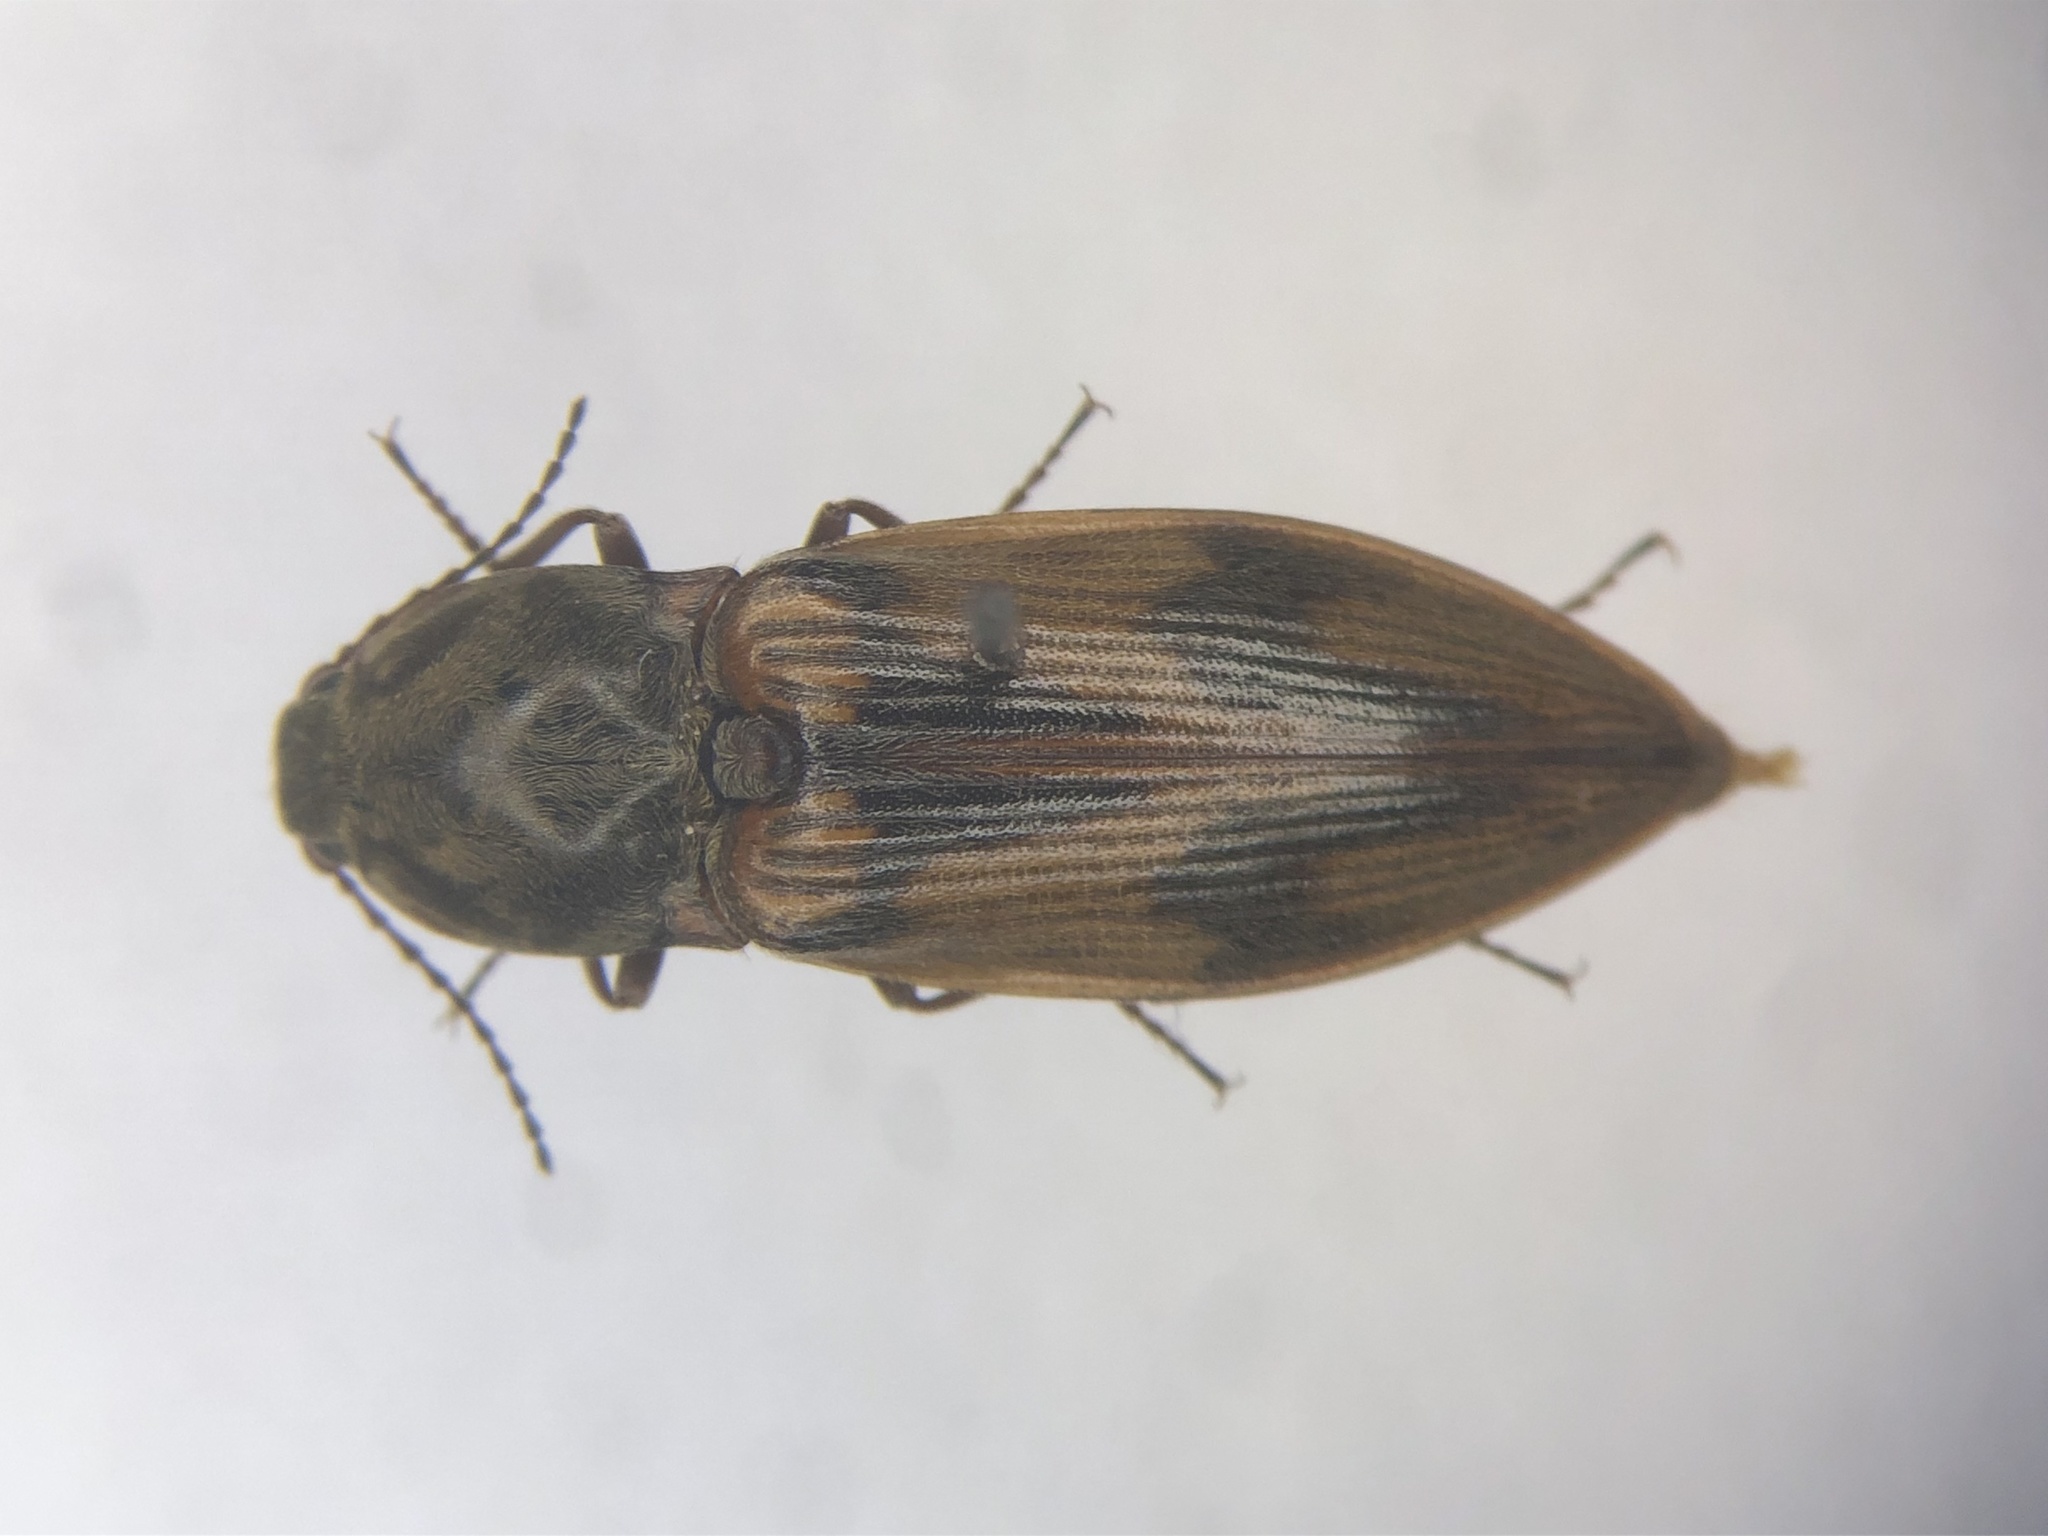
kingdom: Animalia
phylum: Arthropoda
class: Insecta
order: Coleoptera
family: Elateridae
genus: Stropenron
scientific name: Stropenron hieroglyphica
